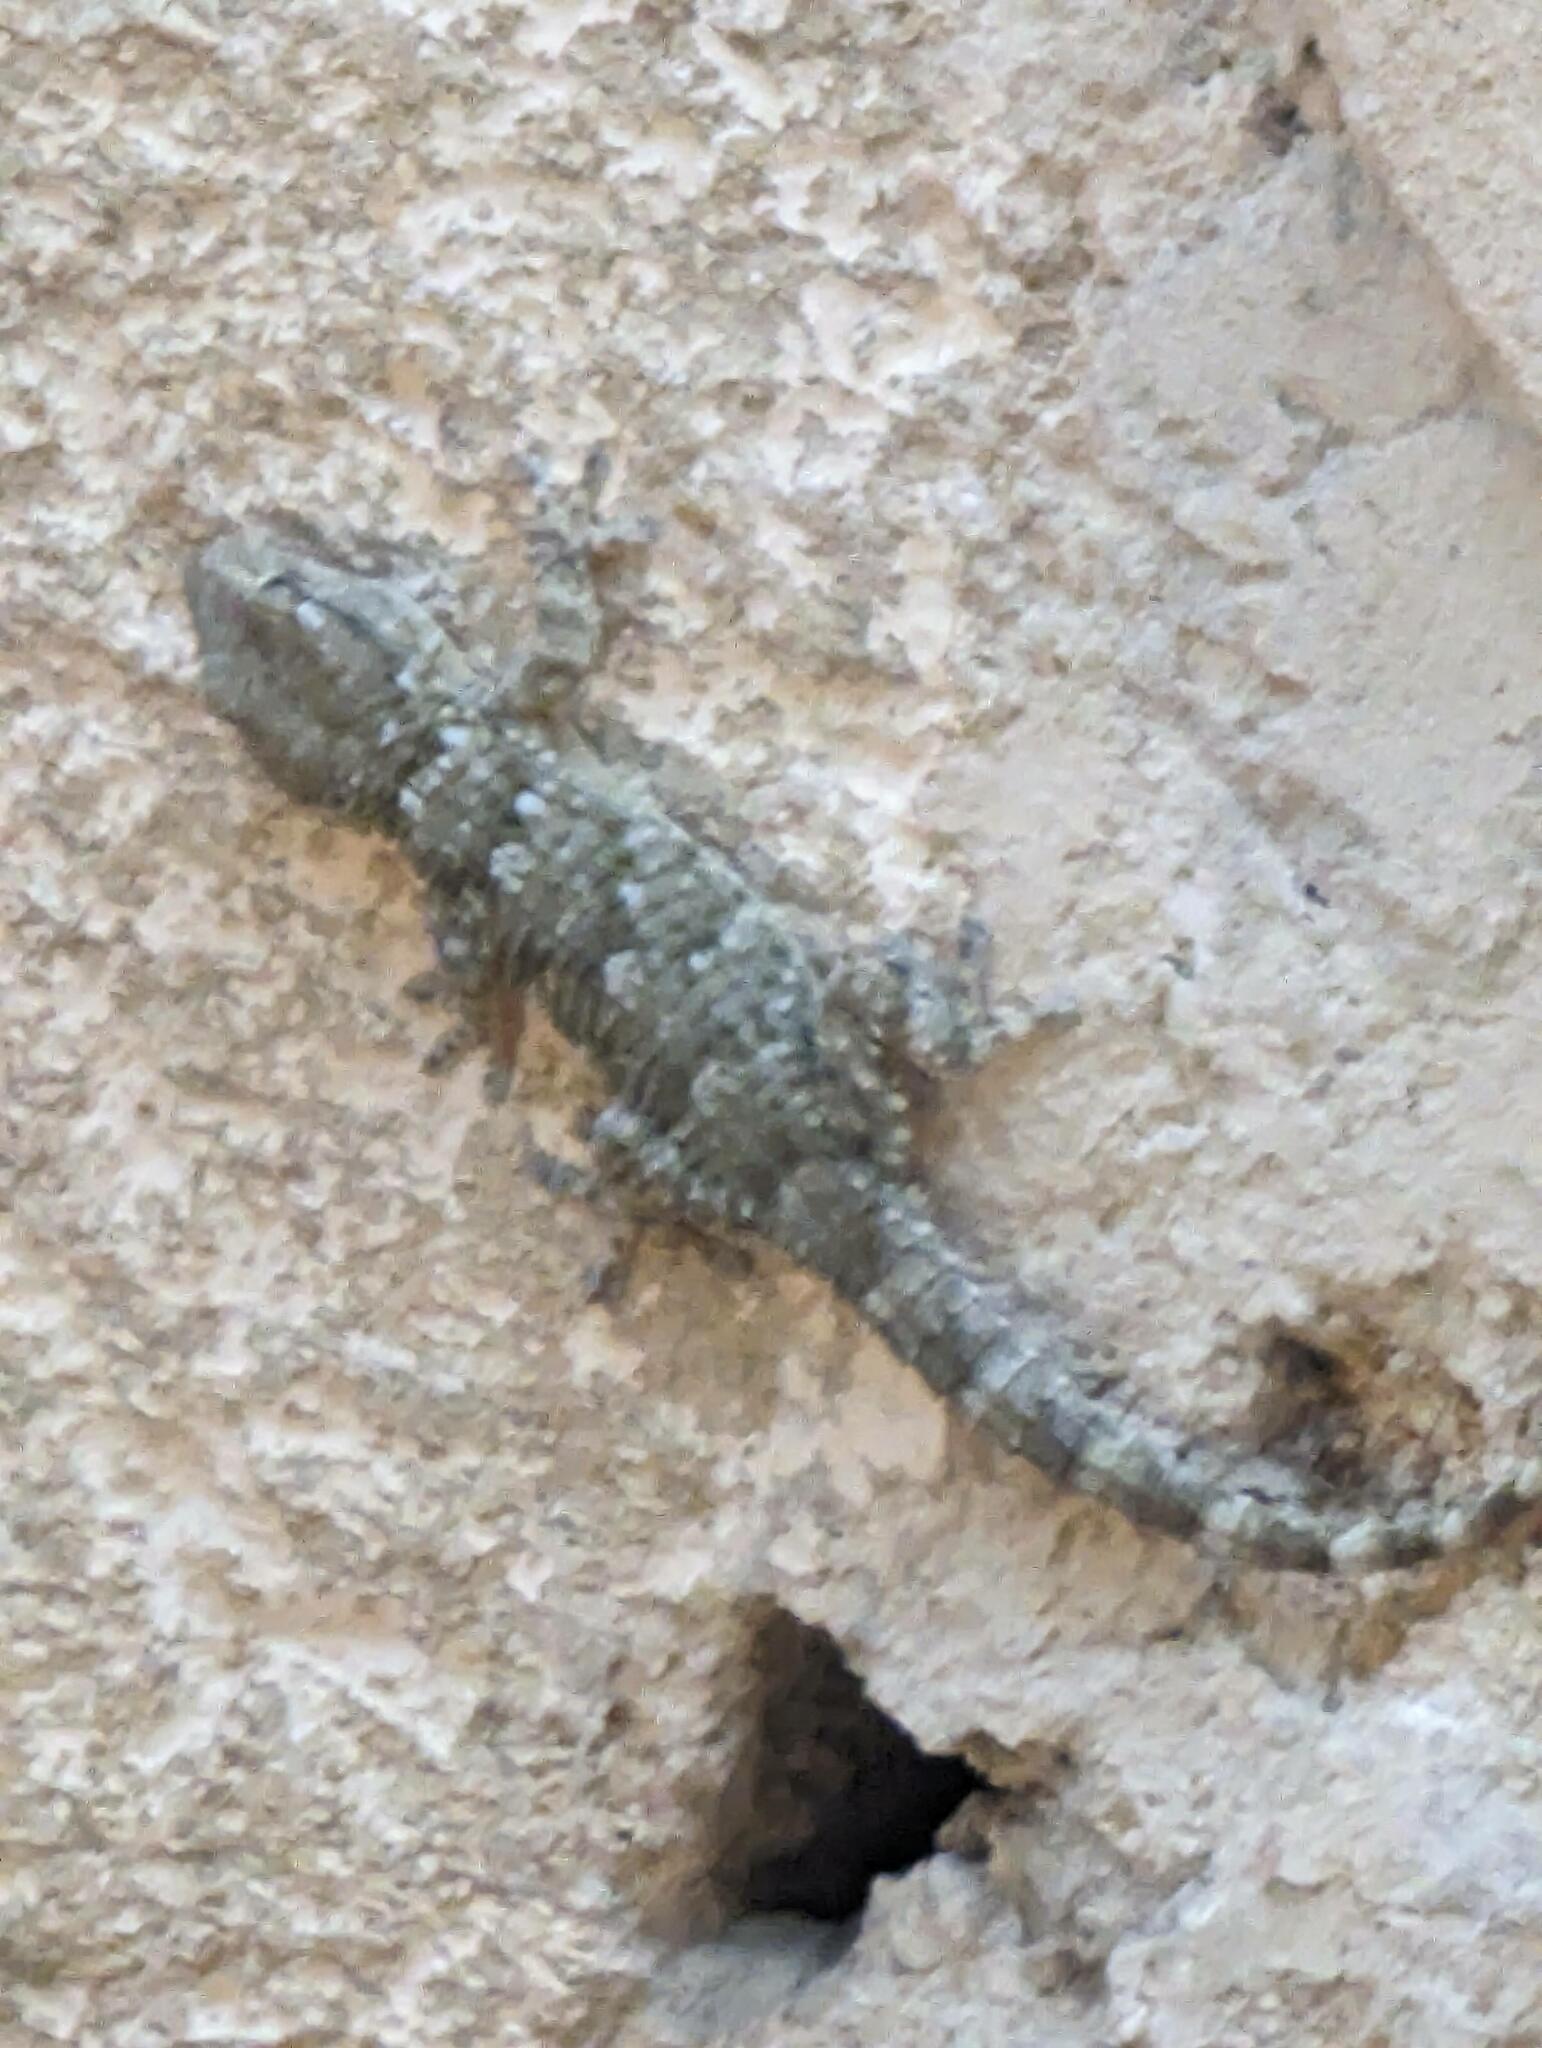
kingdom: Animalia
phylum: Chordata
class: Squamata
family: Phyllodactylidae
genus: Tarentola
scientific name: Tarentola mauritanica
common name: Moorish gecko
